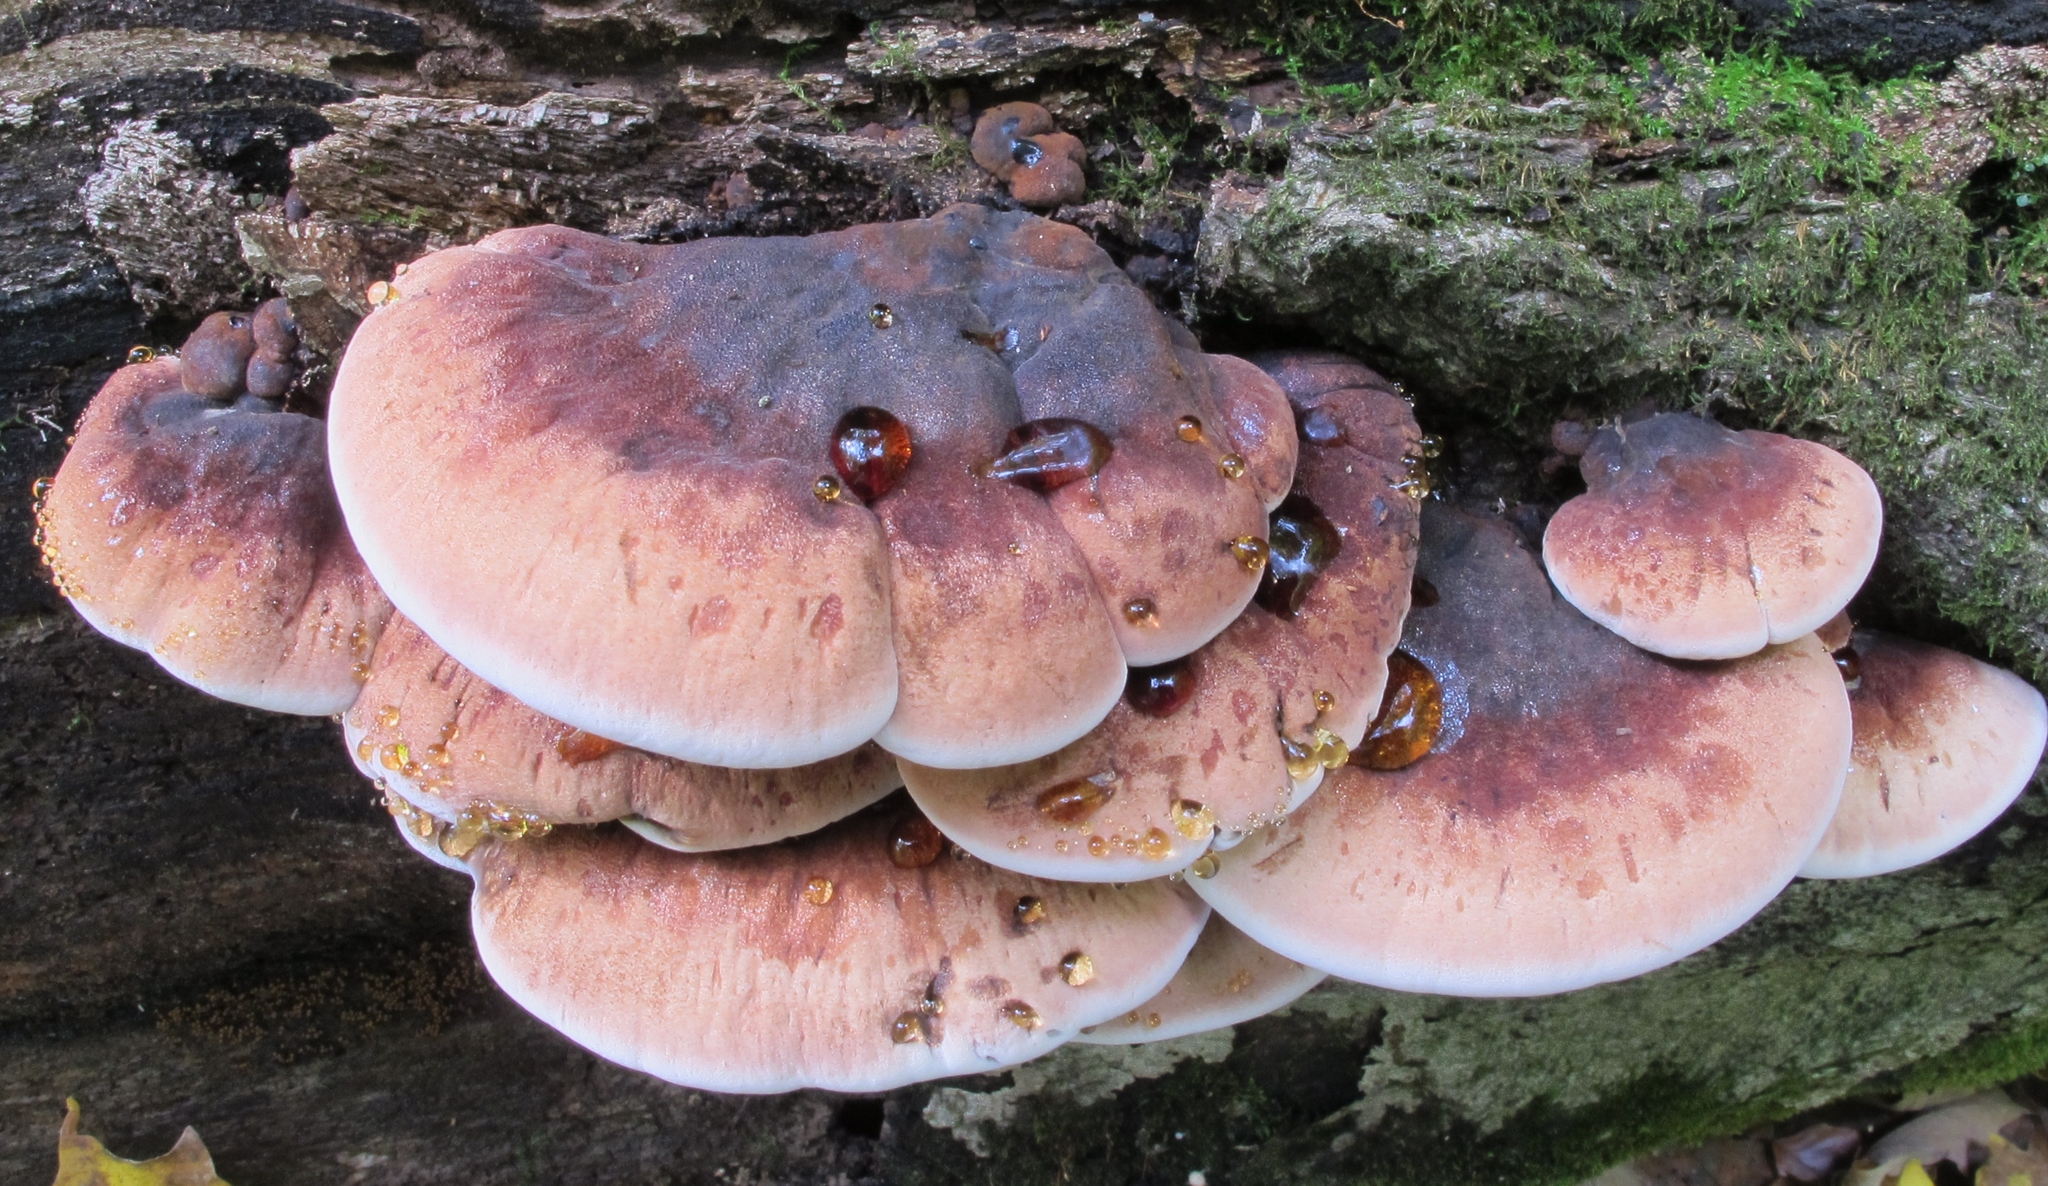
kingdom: Fungi
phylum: Basidiomycota
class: Agaricomycetes
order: Polyporales
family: Ischnodermataceae
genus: Ischnoderma
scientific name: Ischnoderma resinosum
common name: Resinous polypore
